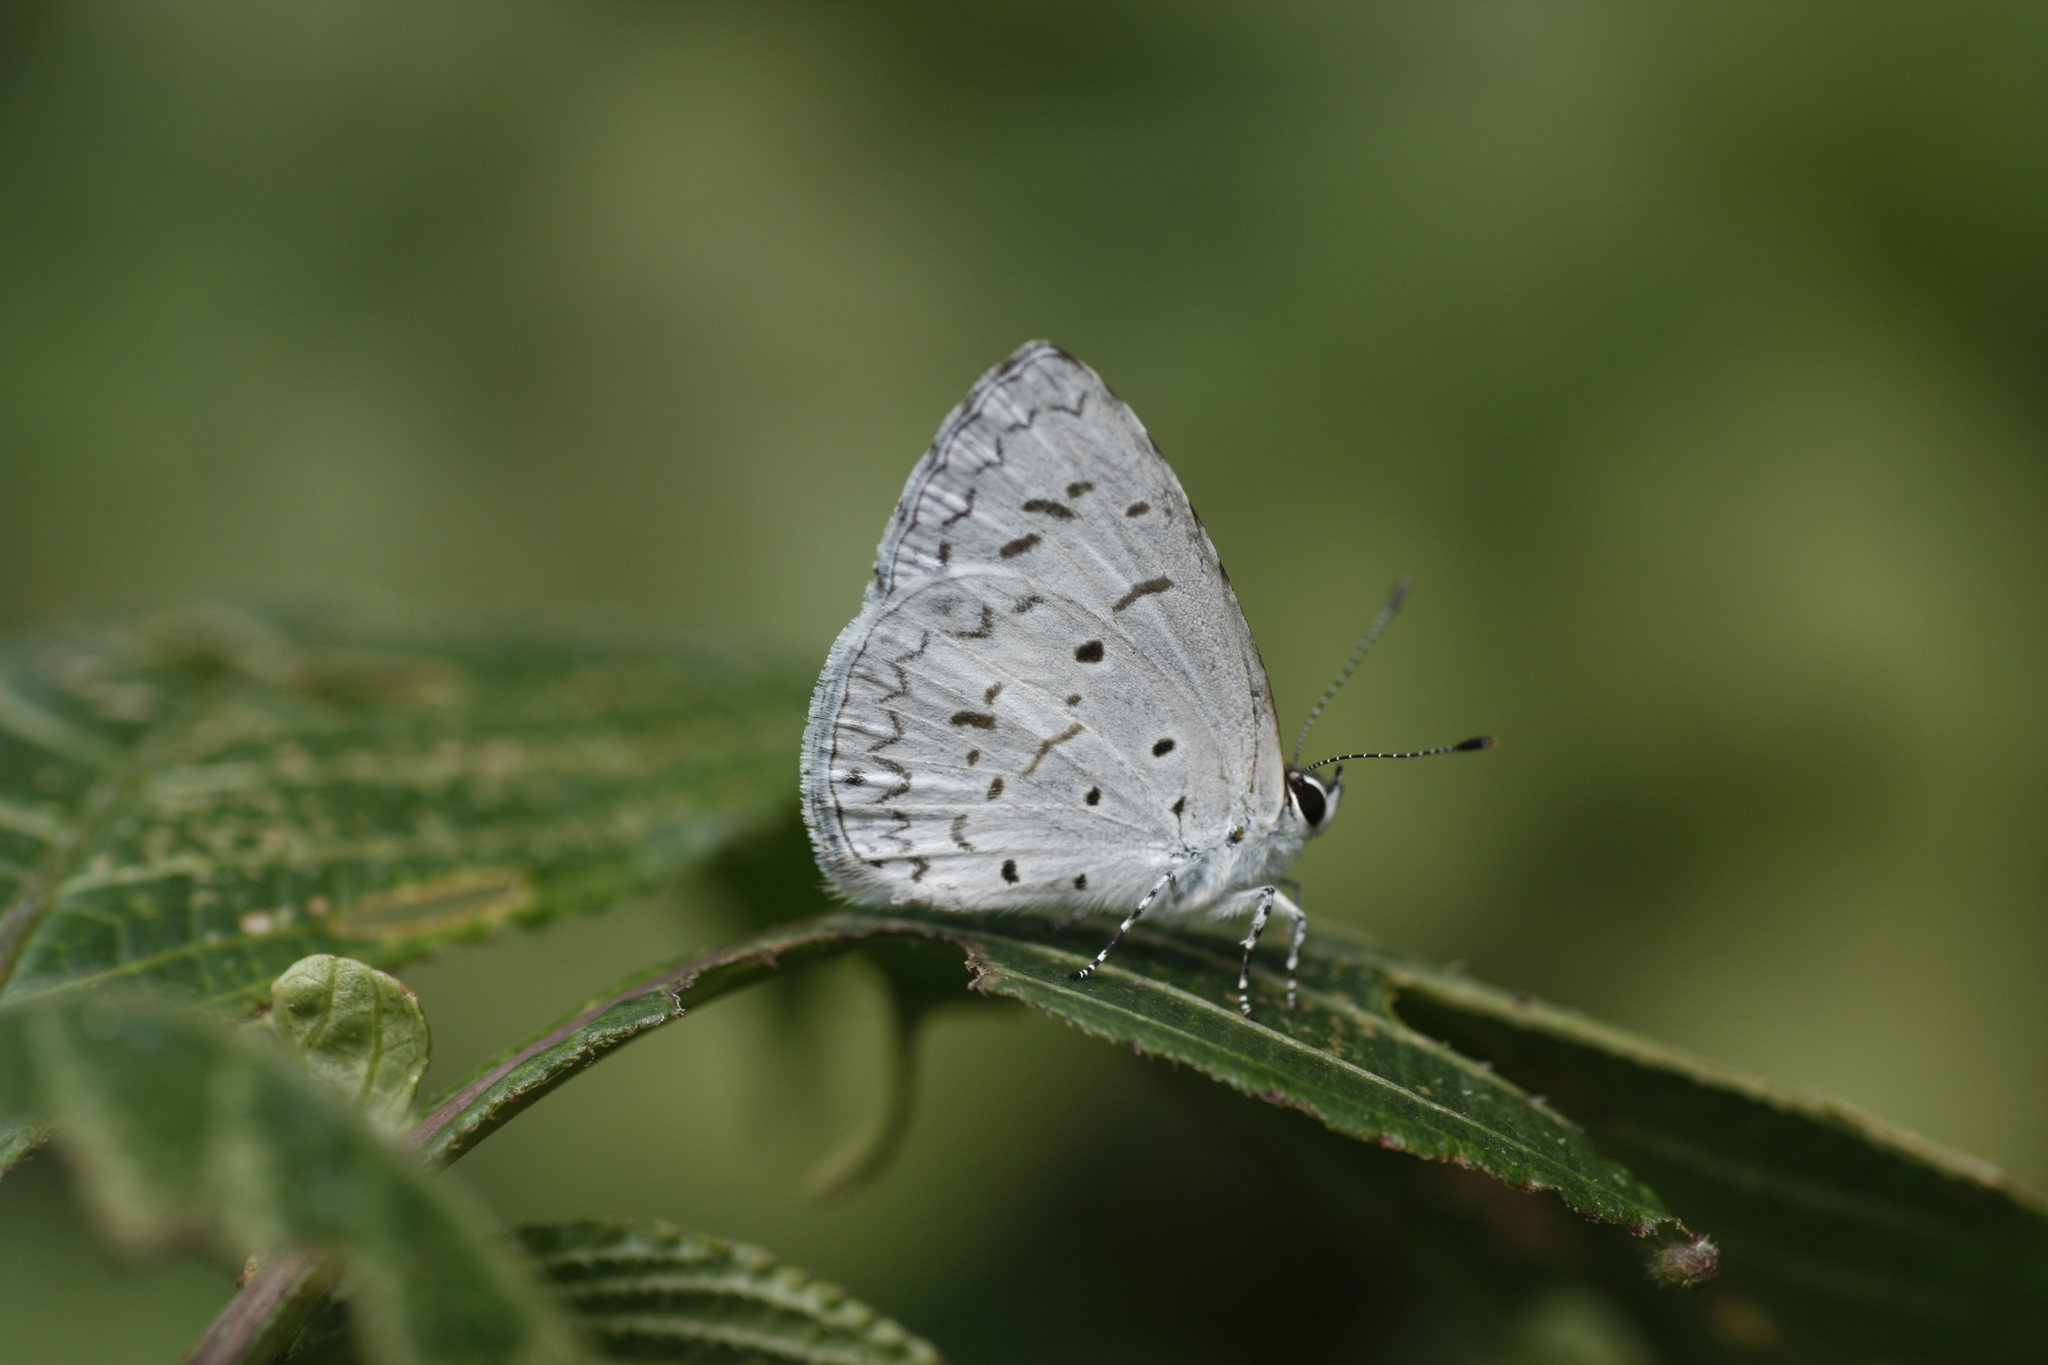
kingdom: Animalia
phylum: Arthropoda
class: Insecta
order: Lepidoptera
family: Lycaenidae
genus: Acytolepis
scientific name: Acytolepis puspa
